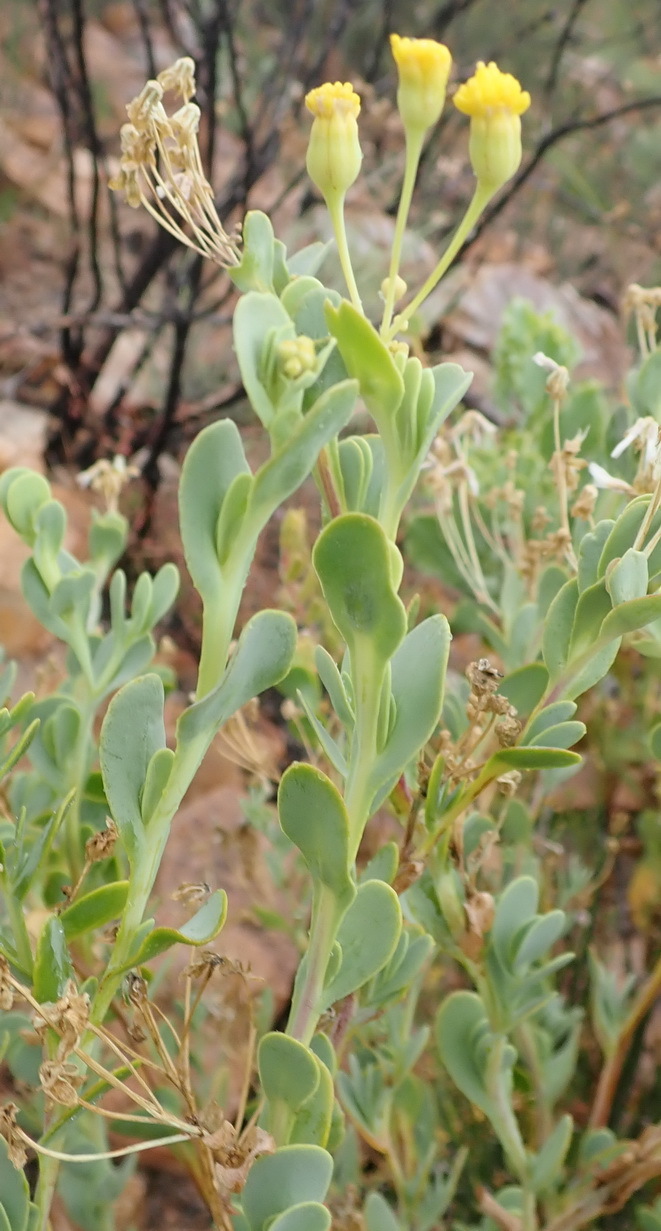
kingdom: Plantae
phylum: Tracheophyta
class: Magnoliopsida
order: Asterales
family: Asteraceae
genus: Hertia
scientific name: Hertia kraussii
